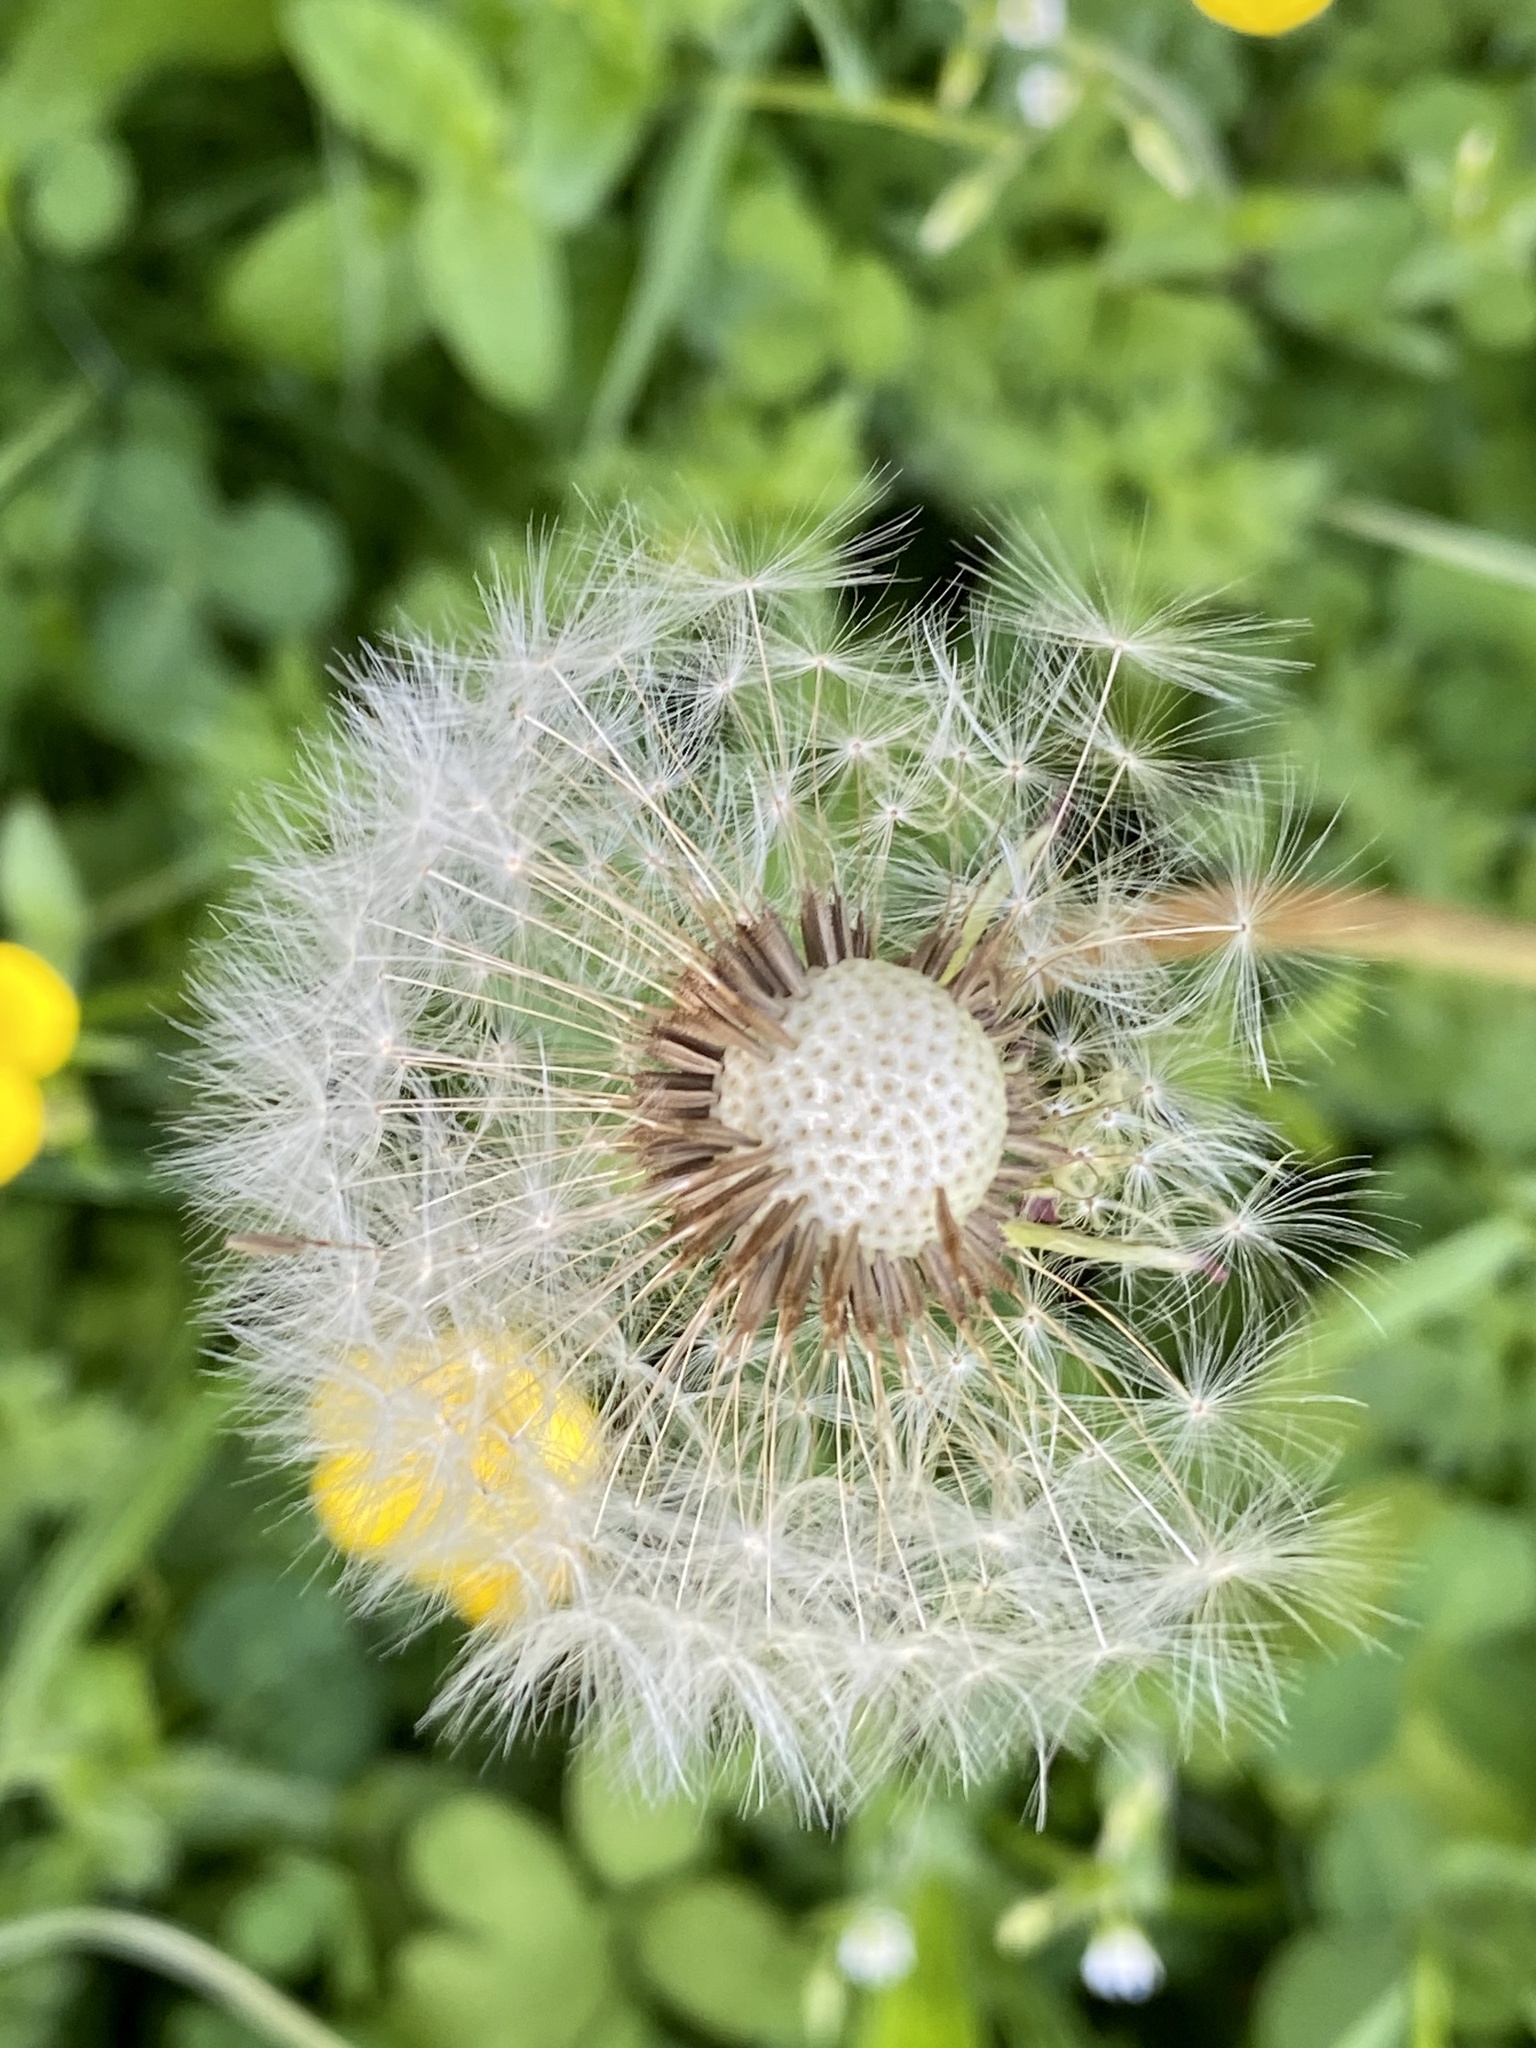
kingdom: Plantae
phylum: Tracheophyta
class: Magnoliopsida
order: Asterales
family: Asteraceae
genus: Taraxacum
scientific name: Taraxacum officinale
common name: Common dandelion
